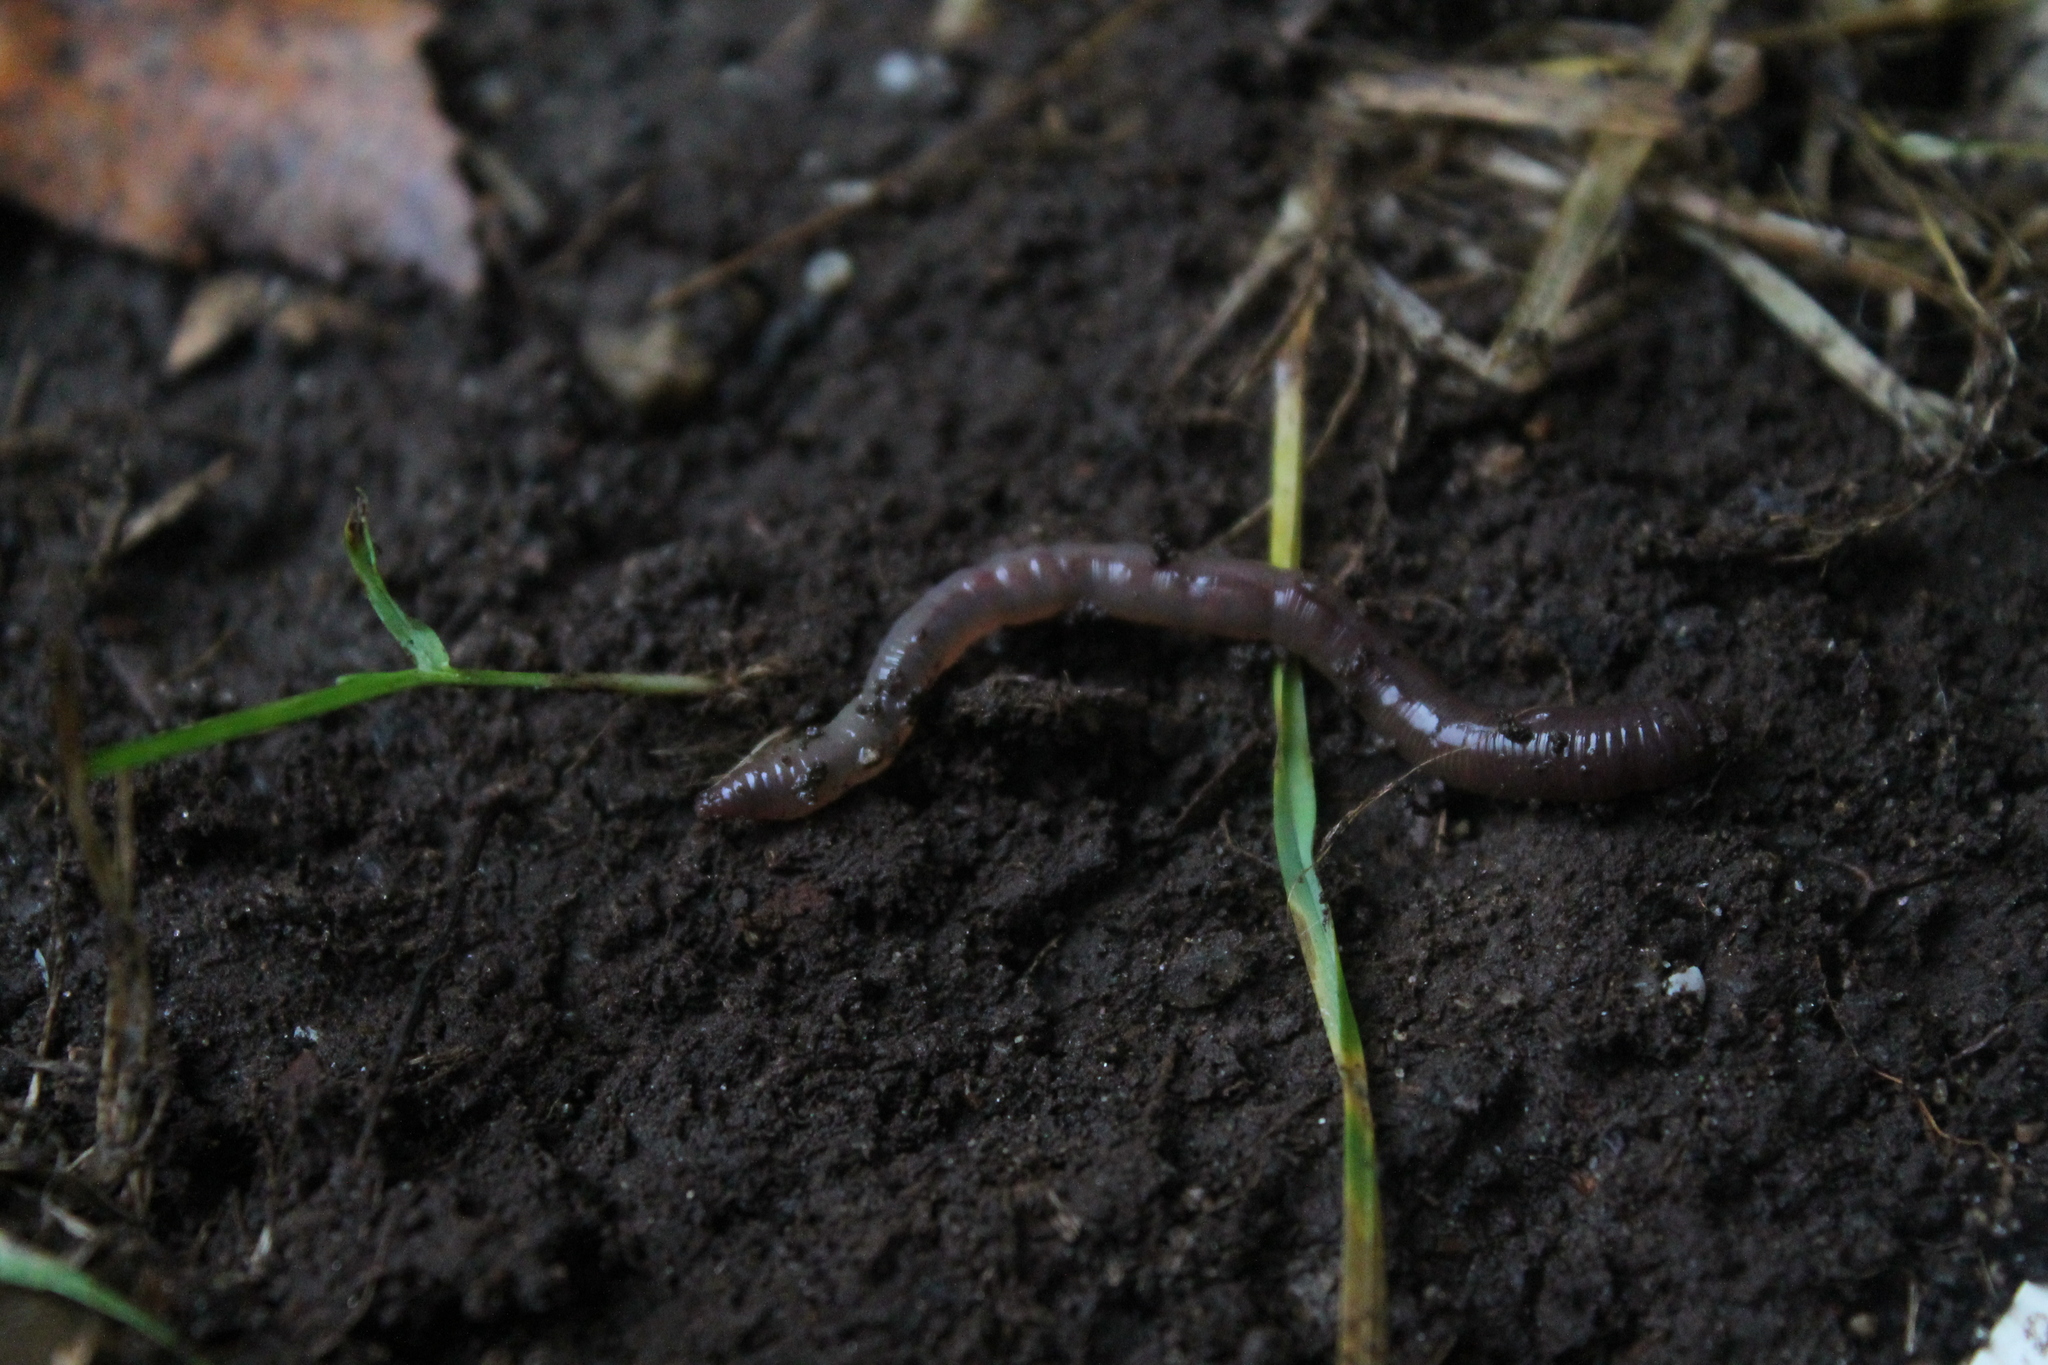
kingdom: Animalia
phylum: Annelida
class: Clitellata
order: Crassiclitellata
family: Lumbricidae
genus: Lumbricus
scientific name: Lumbricus terrestris
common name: Common earthworm
